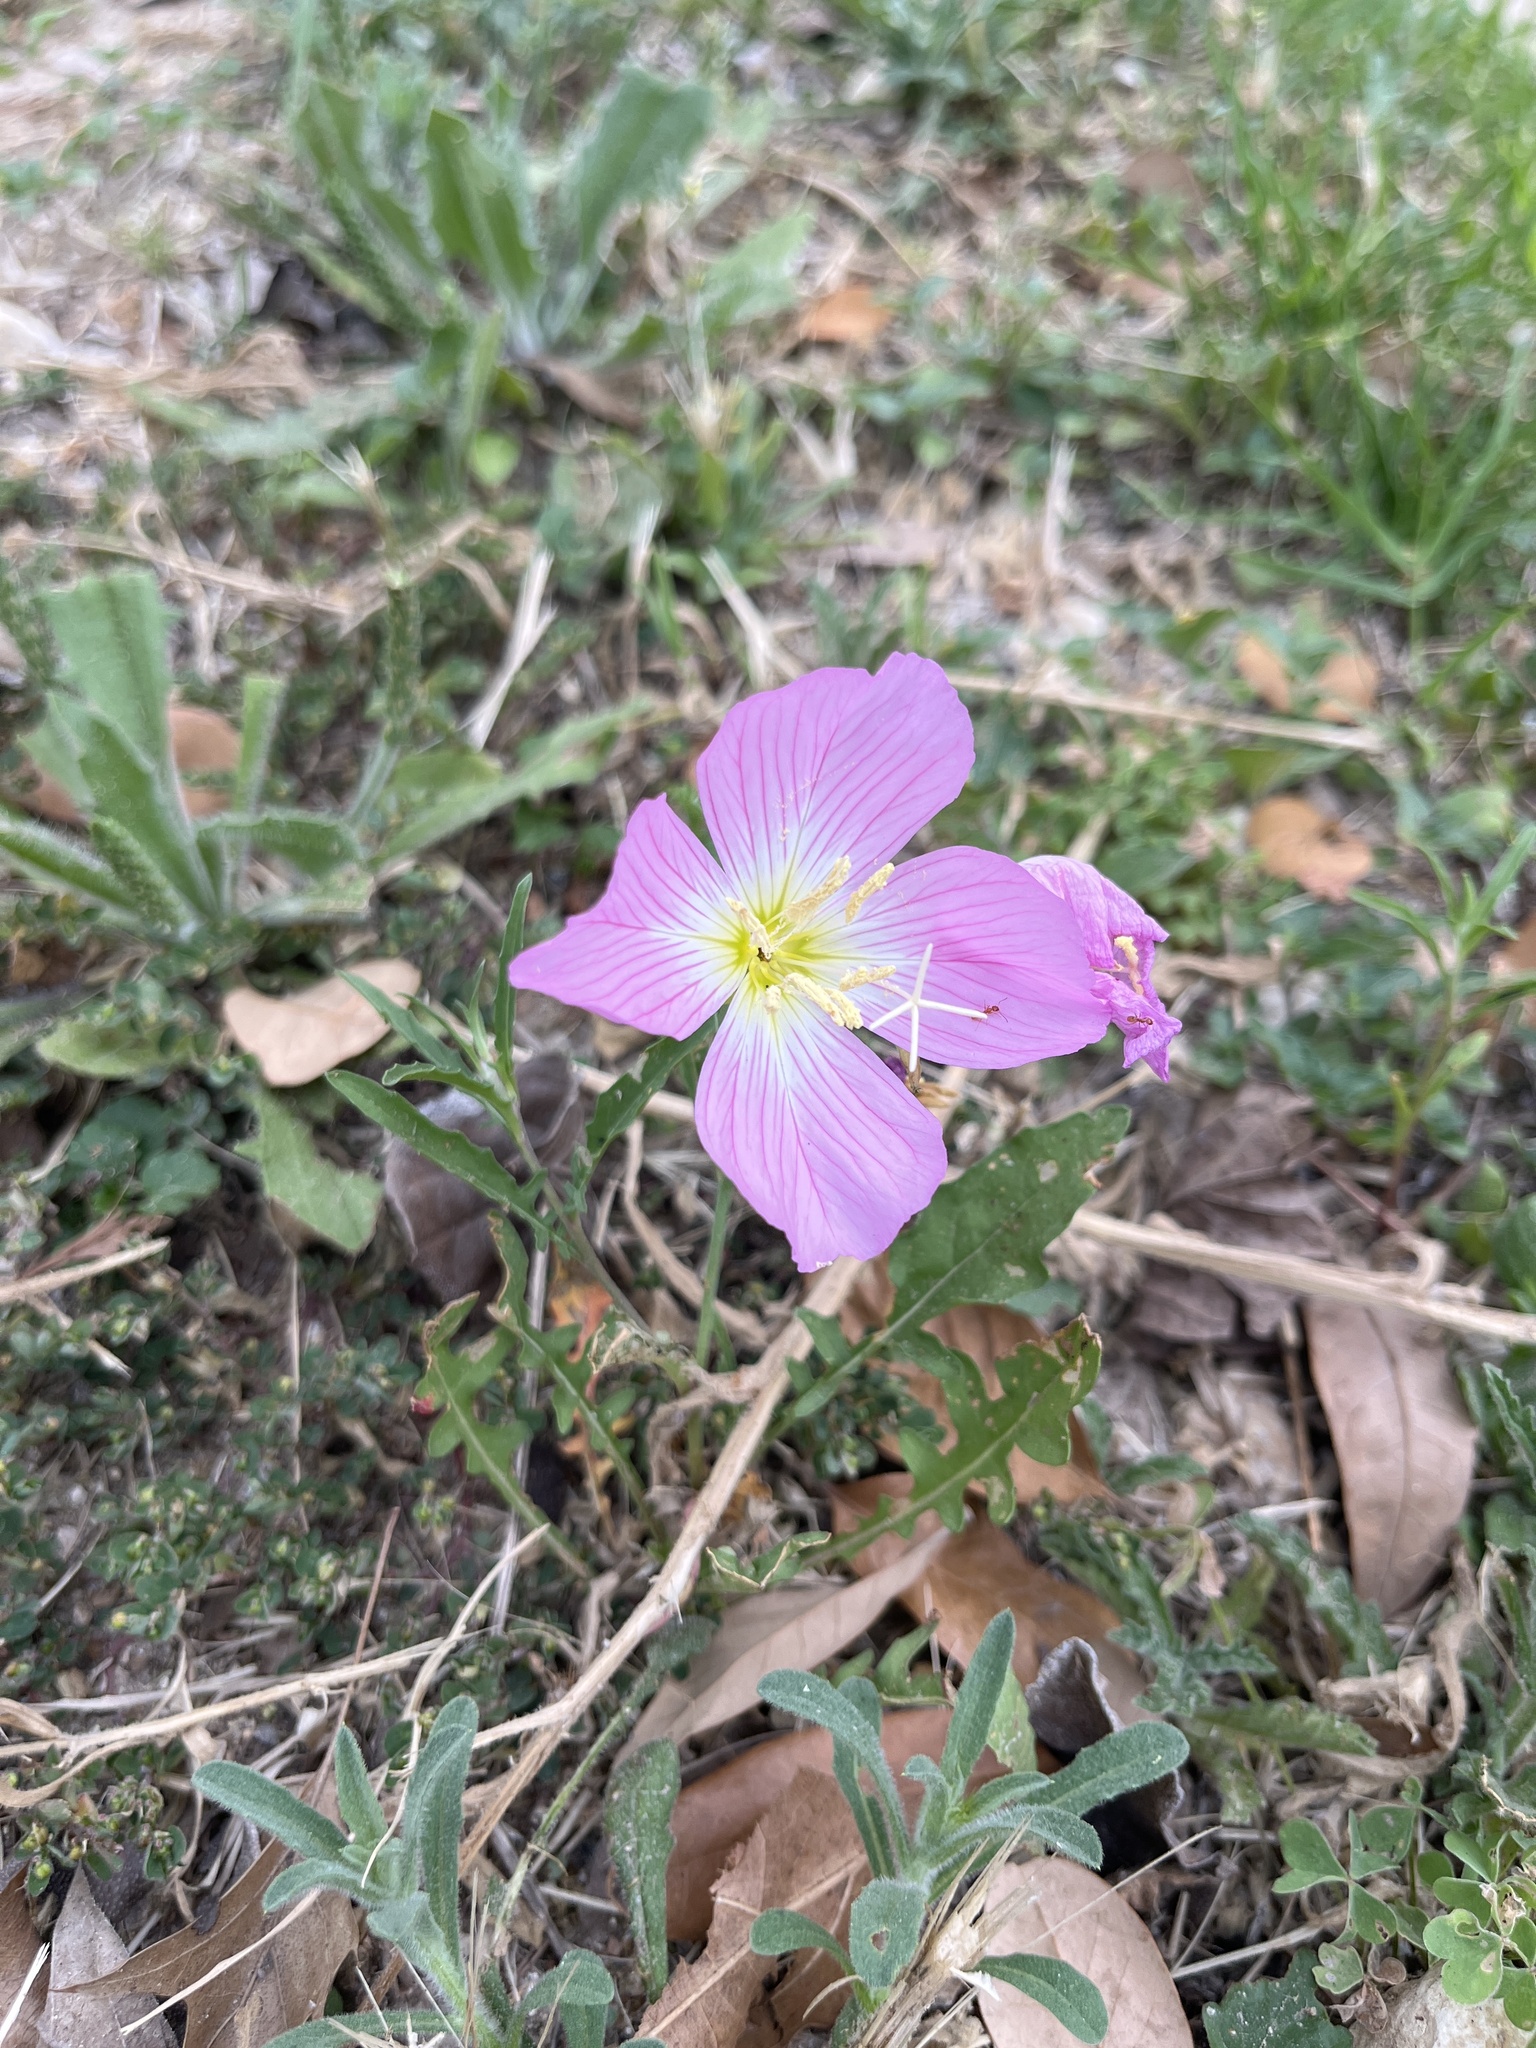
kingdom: Plantae
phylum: Tracheophyta
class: Magnoliopsida
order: Myrtales
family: Onagraceae
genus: Oenothera
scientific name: Oenothera speciosa
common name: White evening-primrose
